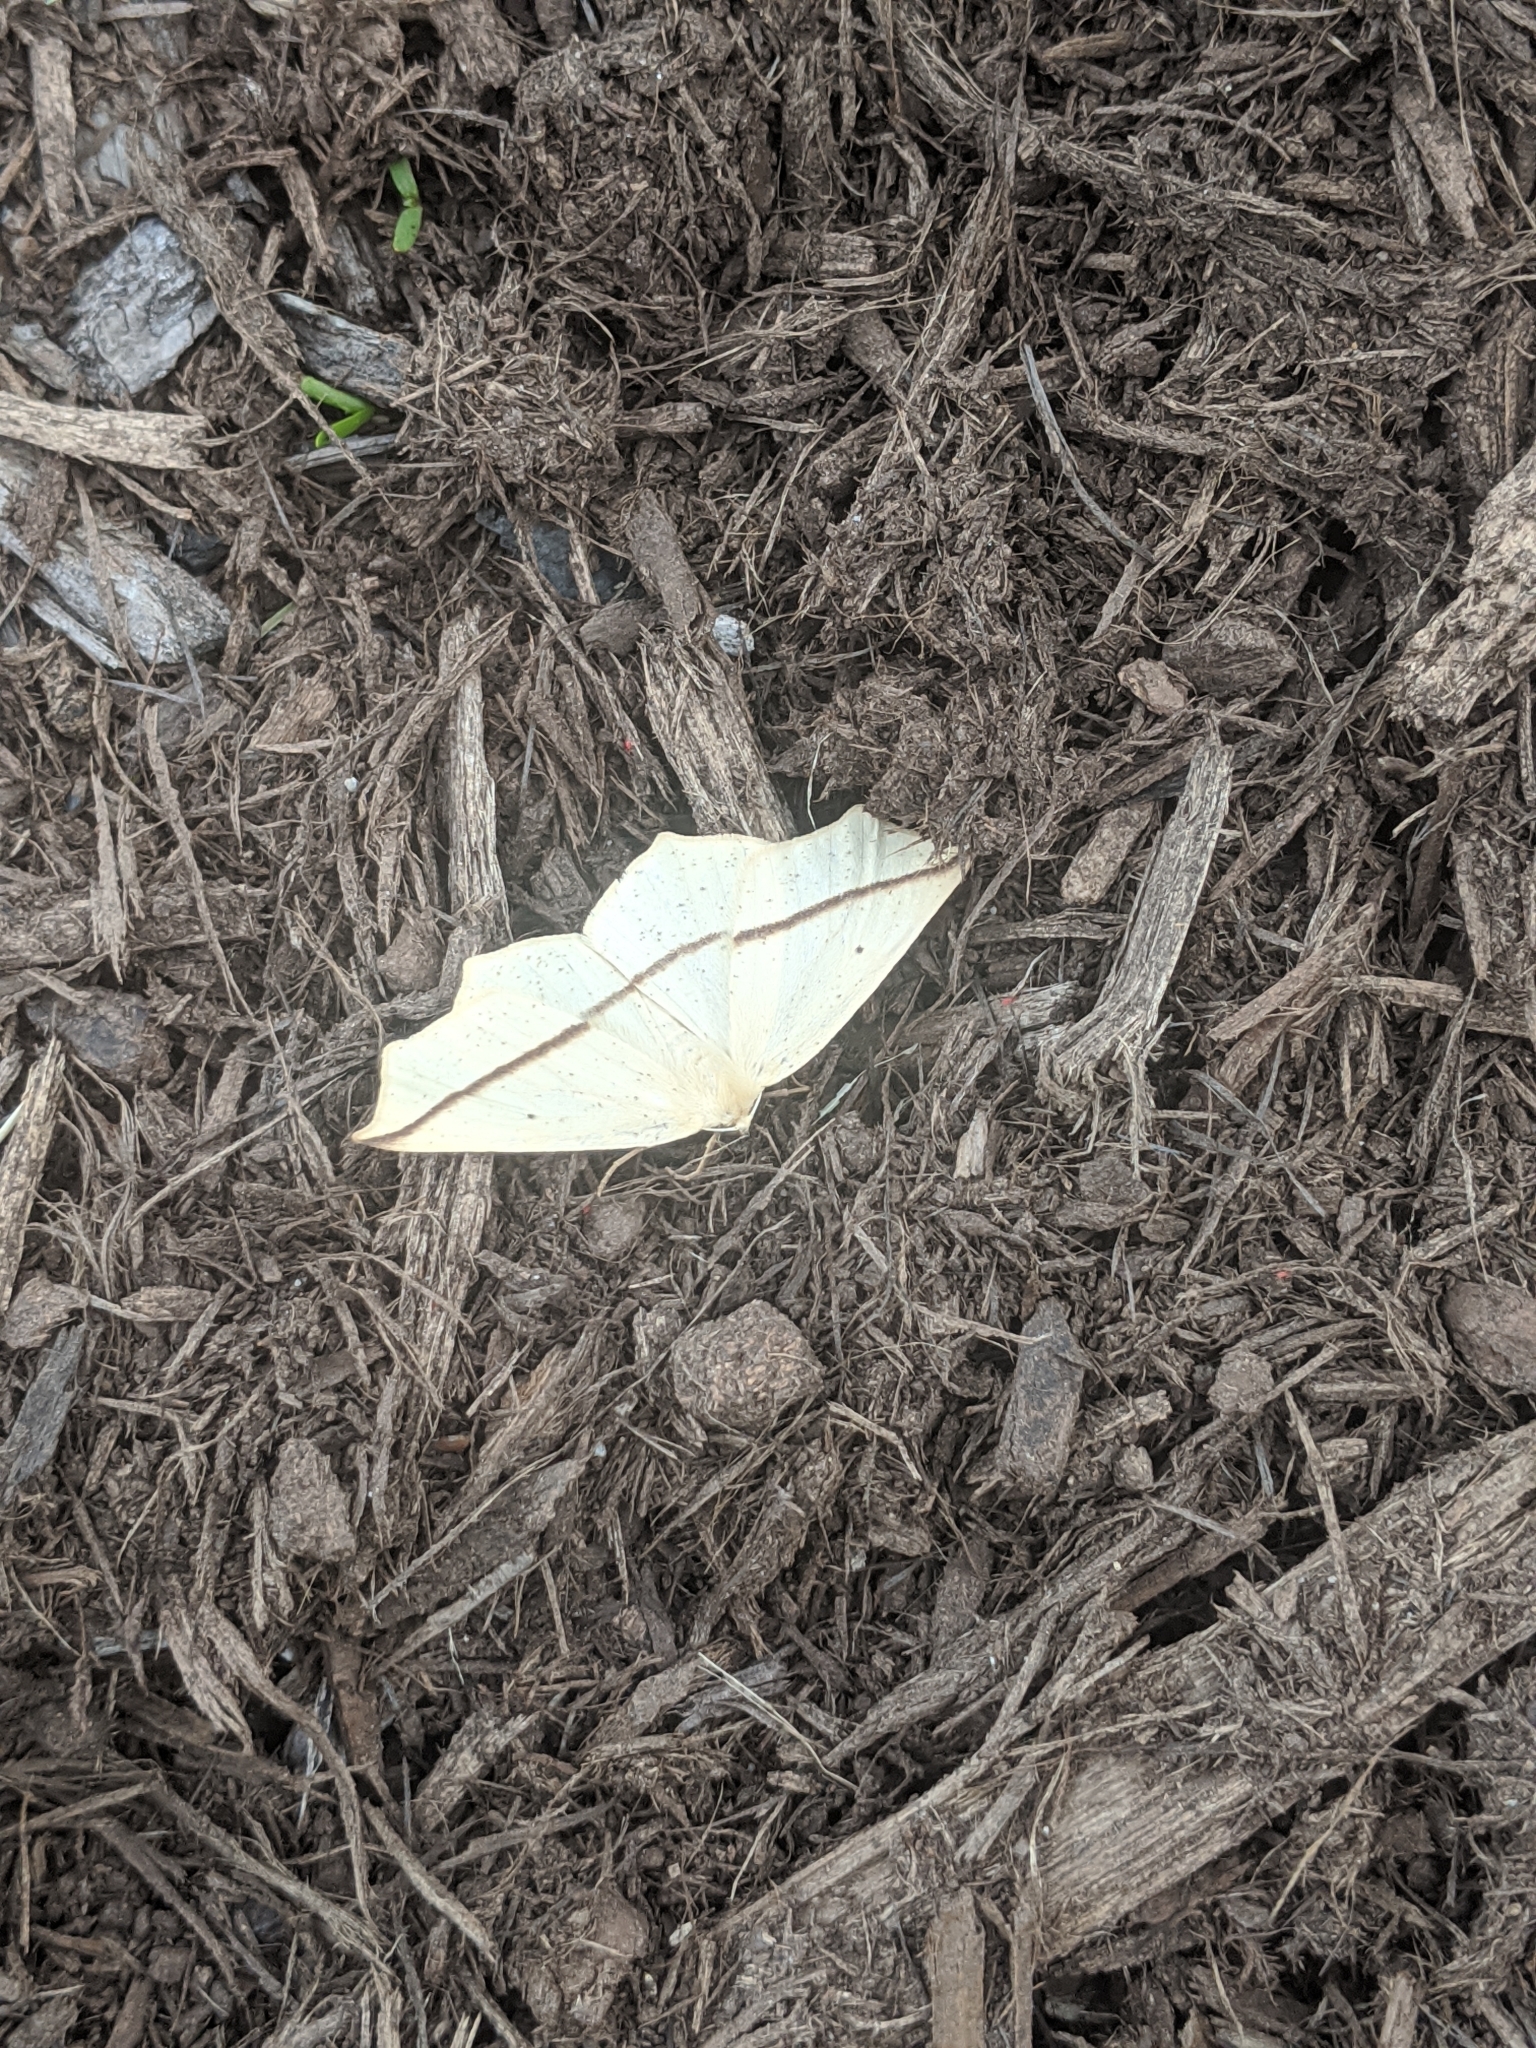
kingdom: Animalia
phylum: Arthropoda
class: Insecta
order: Lepidoptera
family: Geometridae
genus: Tetracis
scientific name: Tetracis crocallata
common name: Yellow slant-line
